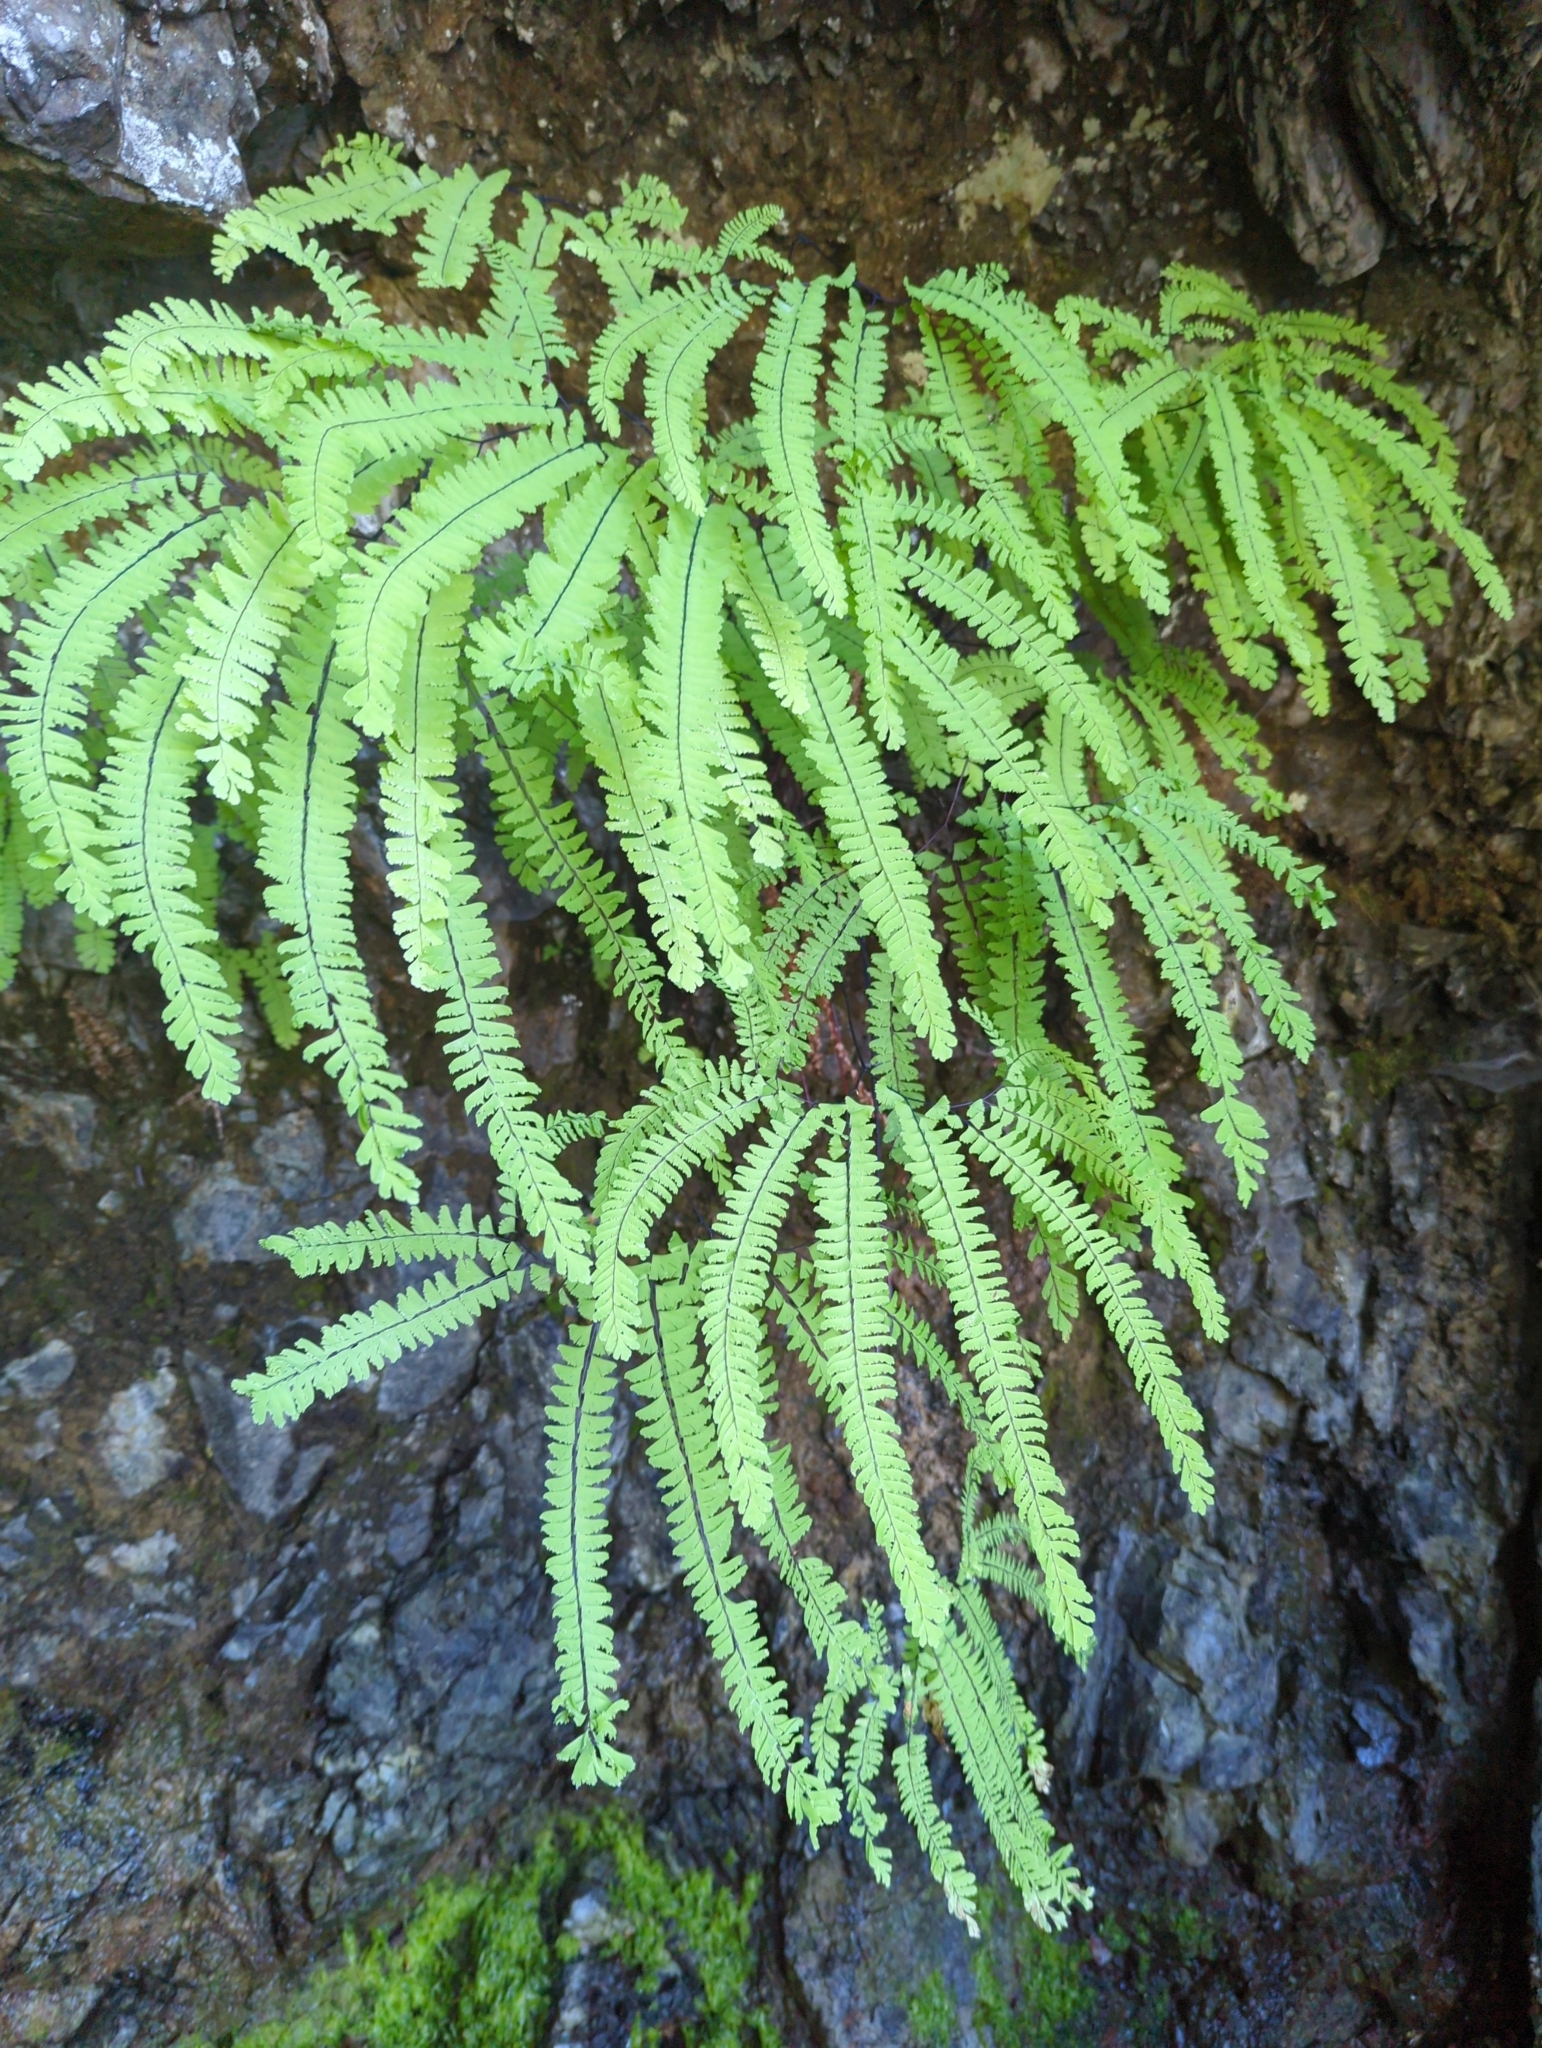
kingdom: Plantae
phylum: Tracheophyta
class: Polypodiopsida
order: Polypodiales
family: Pteridaceae
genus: Adiantum
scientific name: Adiantum aleuticum
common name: Aleutian maidenhair fern
